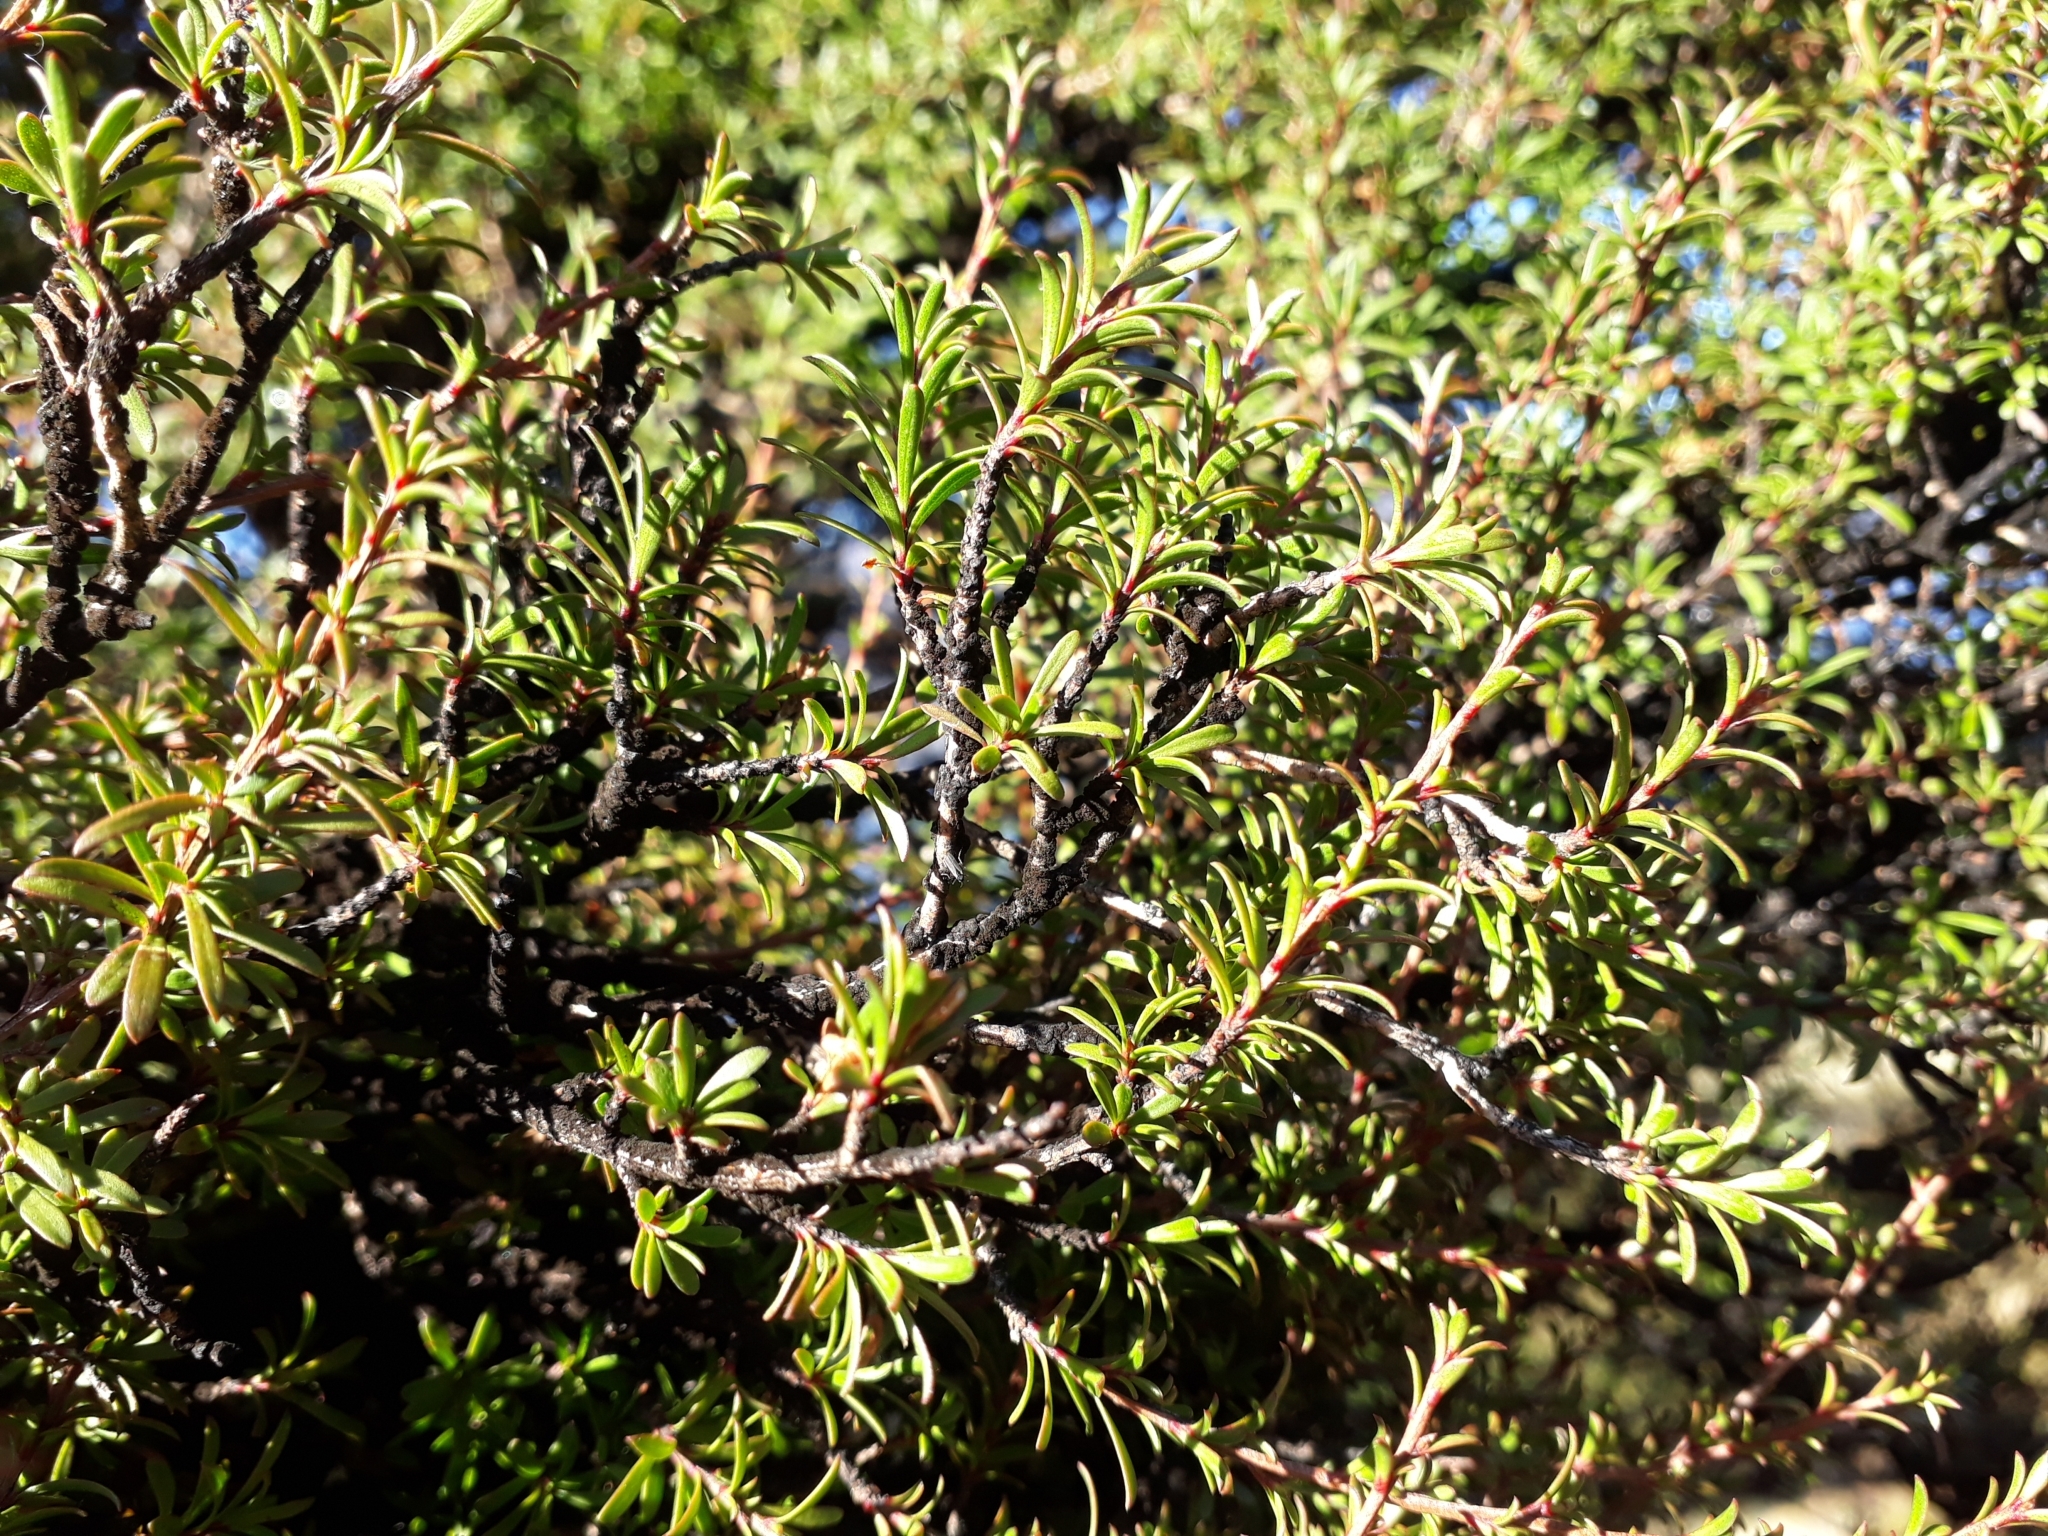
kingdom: Plantae
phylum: Tracheophyta
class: Magnoliopsida
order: Myrtales
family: Myrtaceae
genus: Kunzea
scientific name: Kunzea serotina
